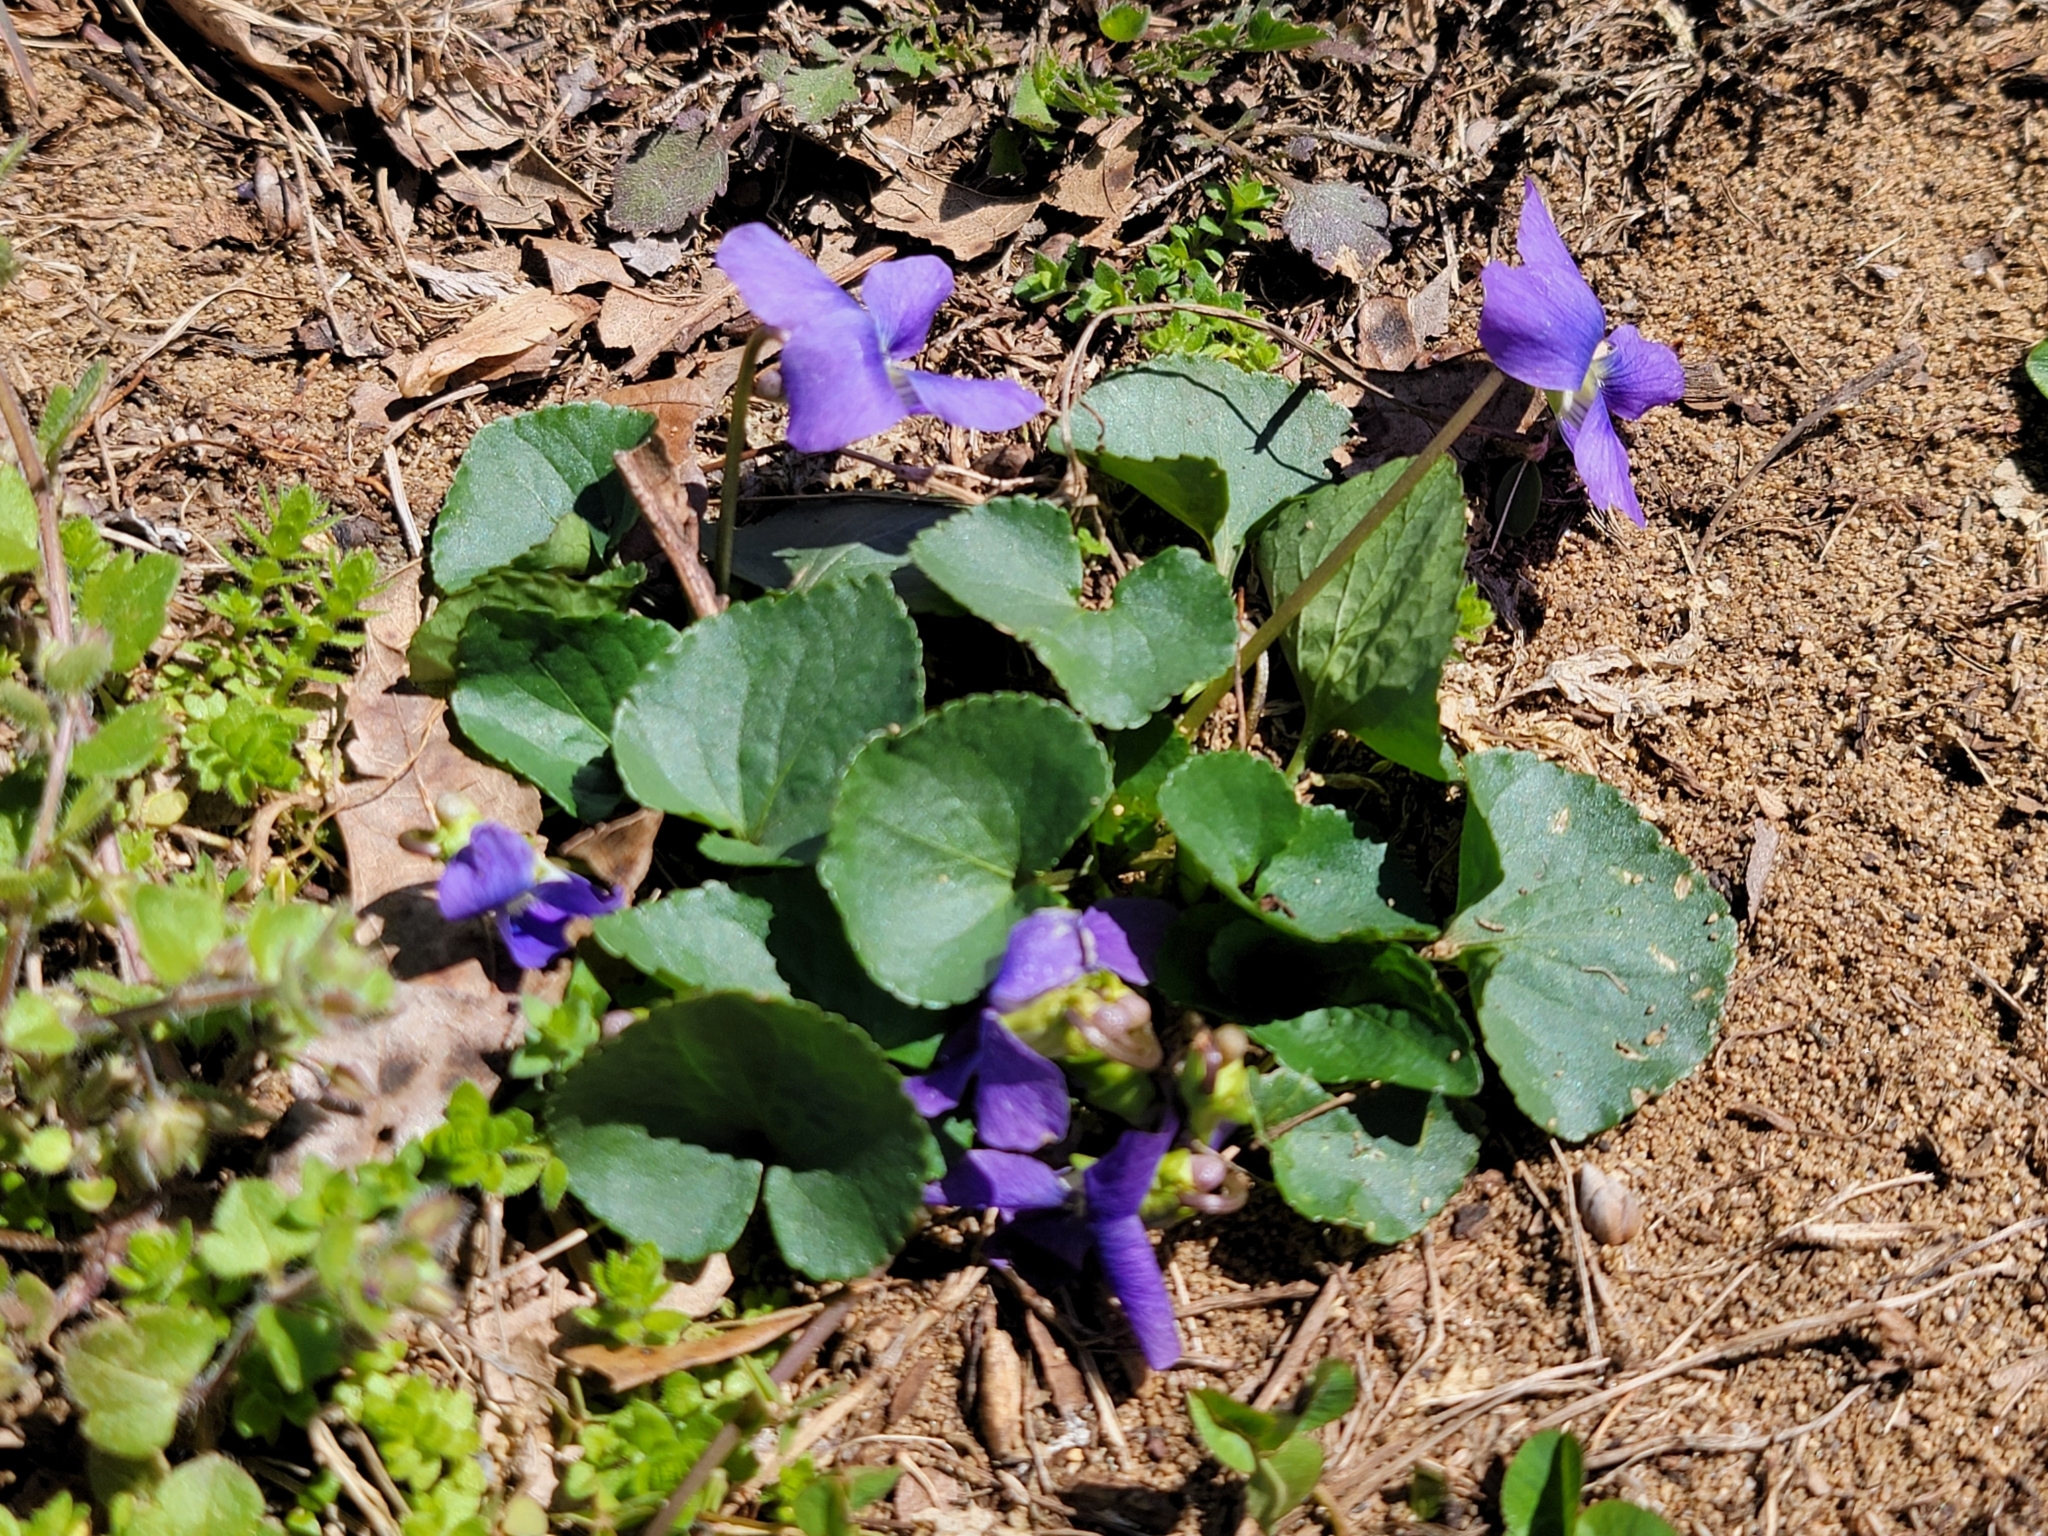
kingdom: Plantae
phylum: Tracheophyta
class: Magnoliopsida
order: Malpighiales
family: Violaceae
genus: Viola
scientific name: Viola sororia
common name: Dooryard violet
